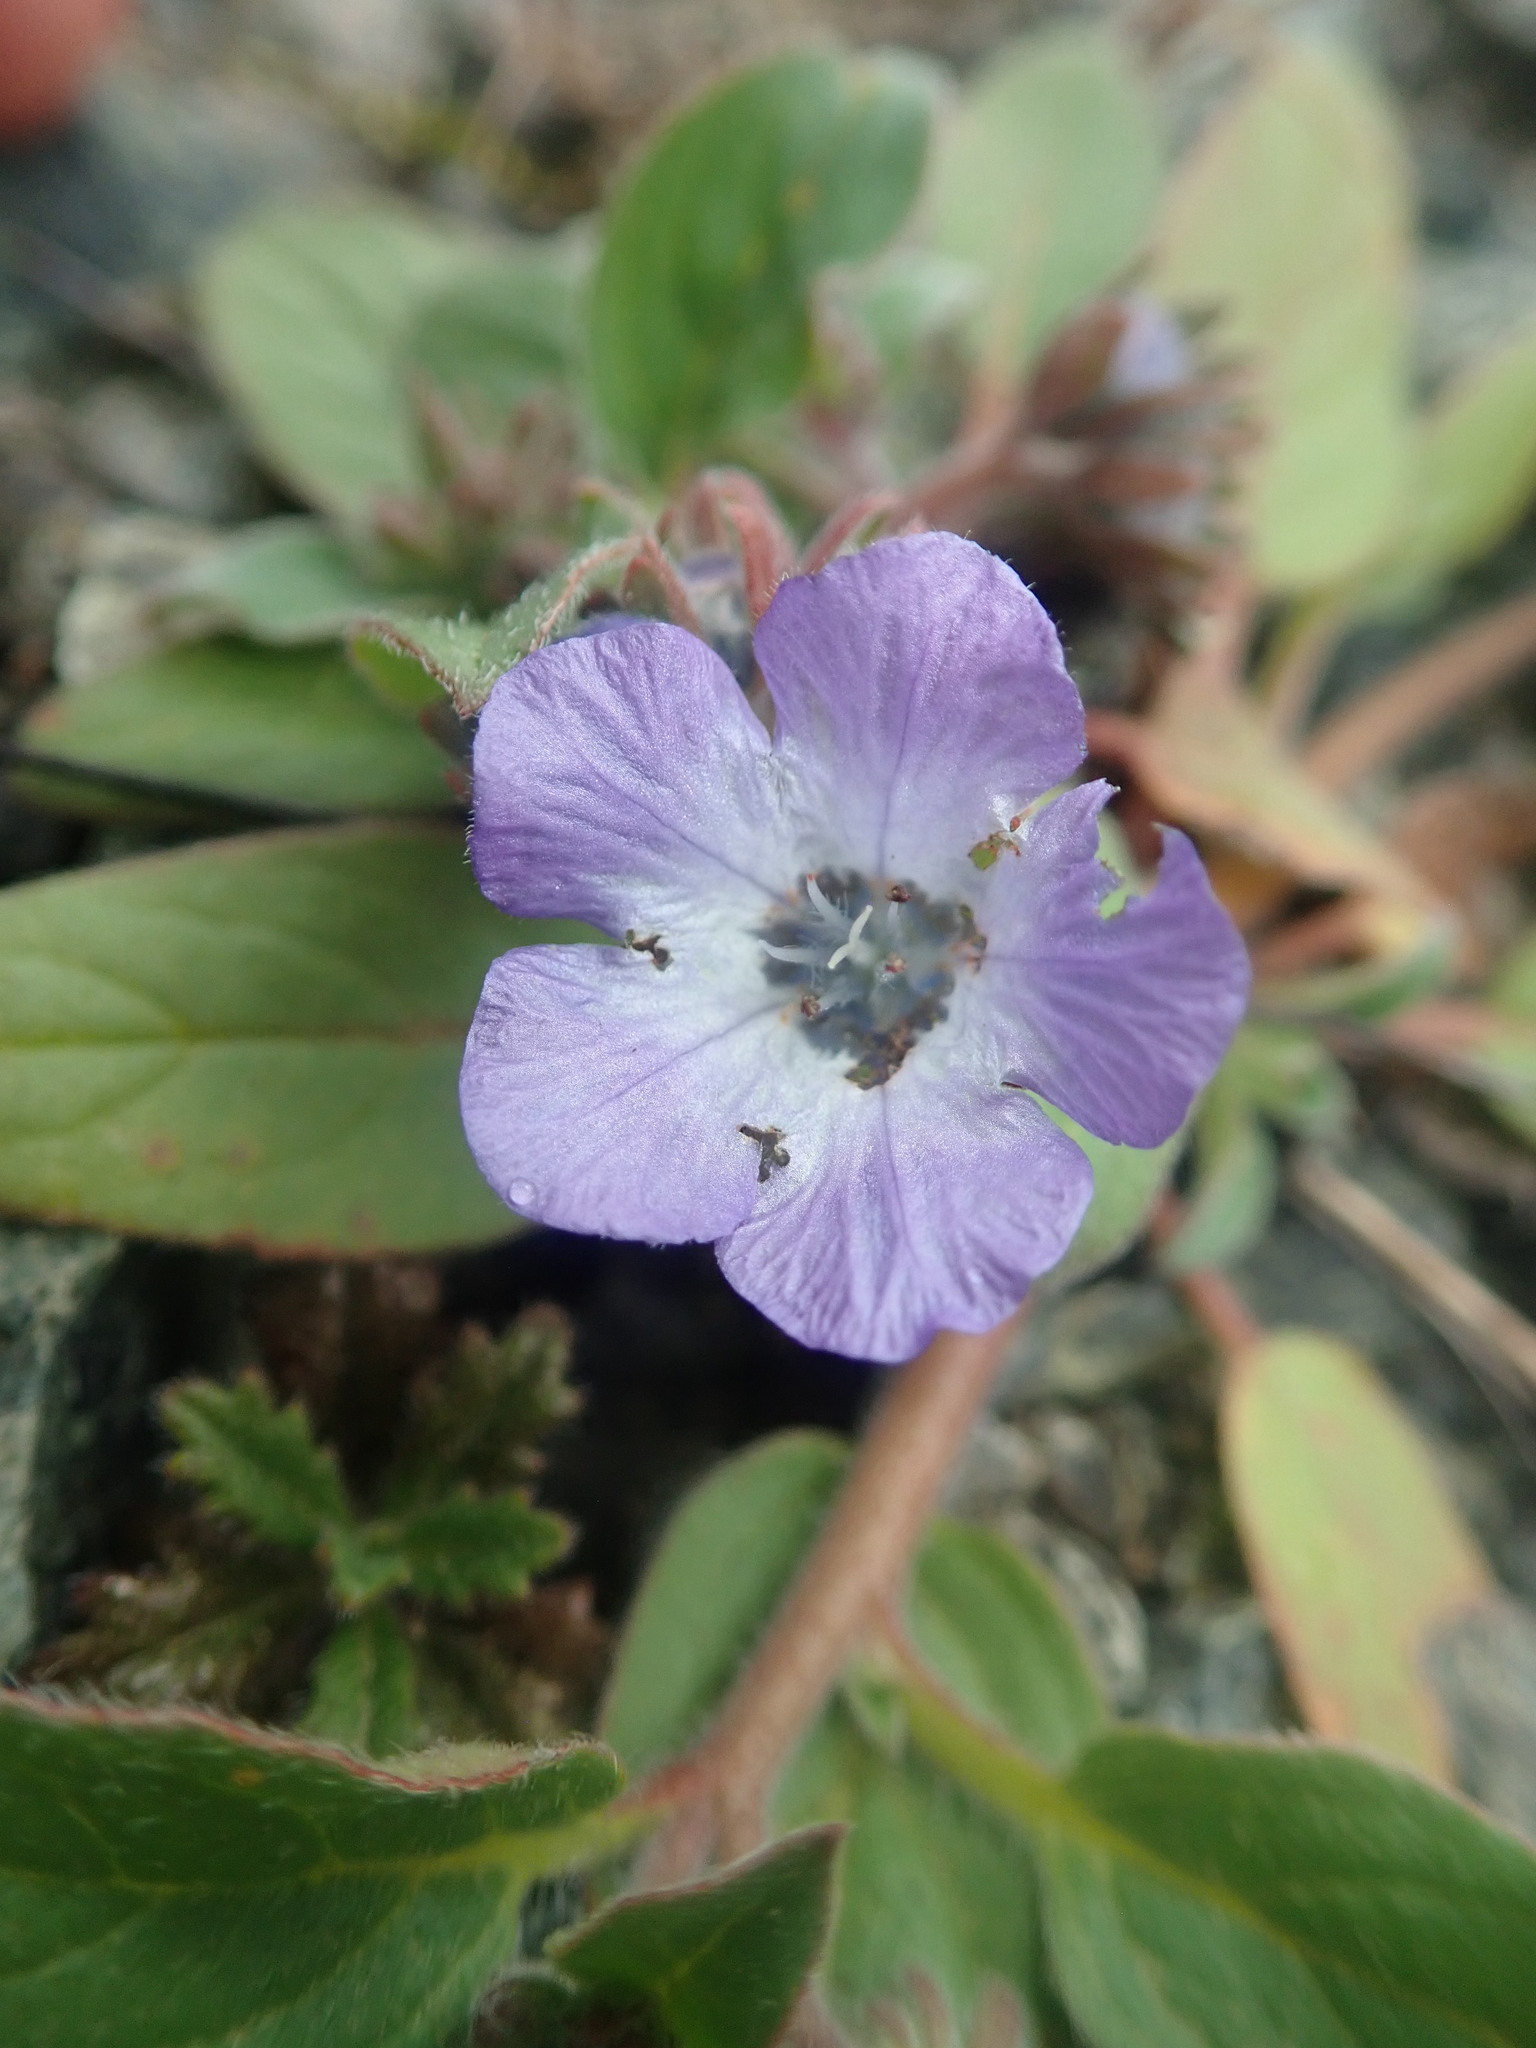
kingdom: Plantae
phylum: Tracheophyta
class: Magnoliopsida
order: Boraginales
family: Hydrophyllaceae
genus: Phacelia
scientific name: Phacelia divaricata
